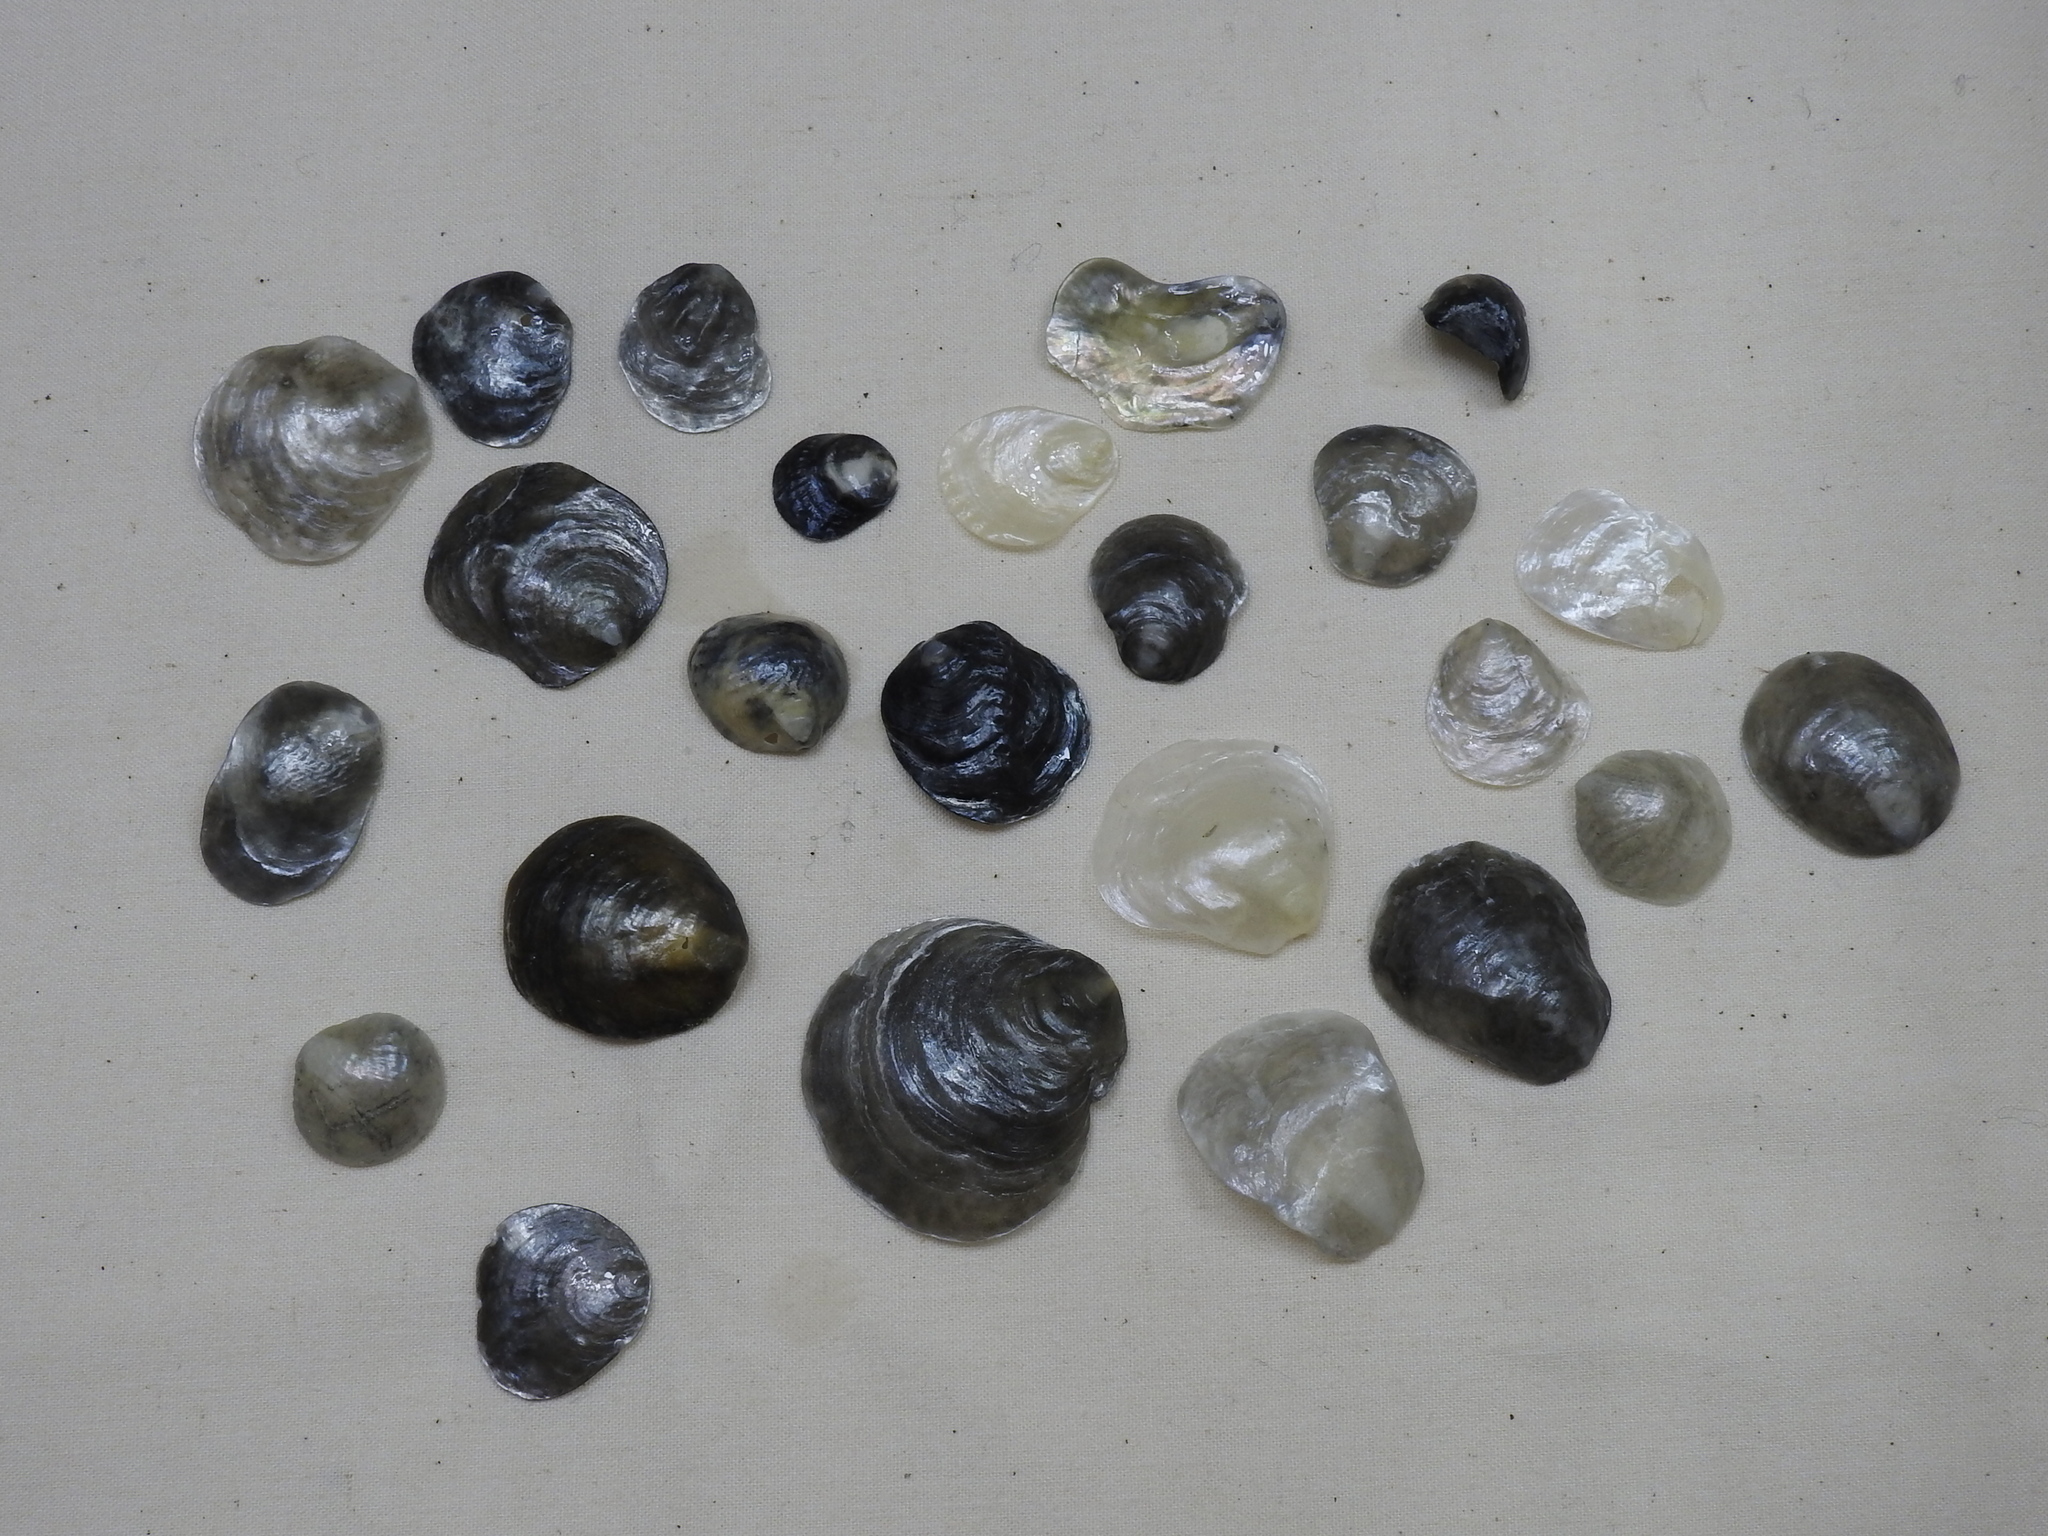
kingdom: Animalia
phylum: Mollusca
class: Bivalvia
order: Pectinida
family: Anomiidae
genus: Anomia
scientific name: Anomia simplex
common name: Common jingle shell
